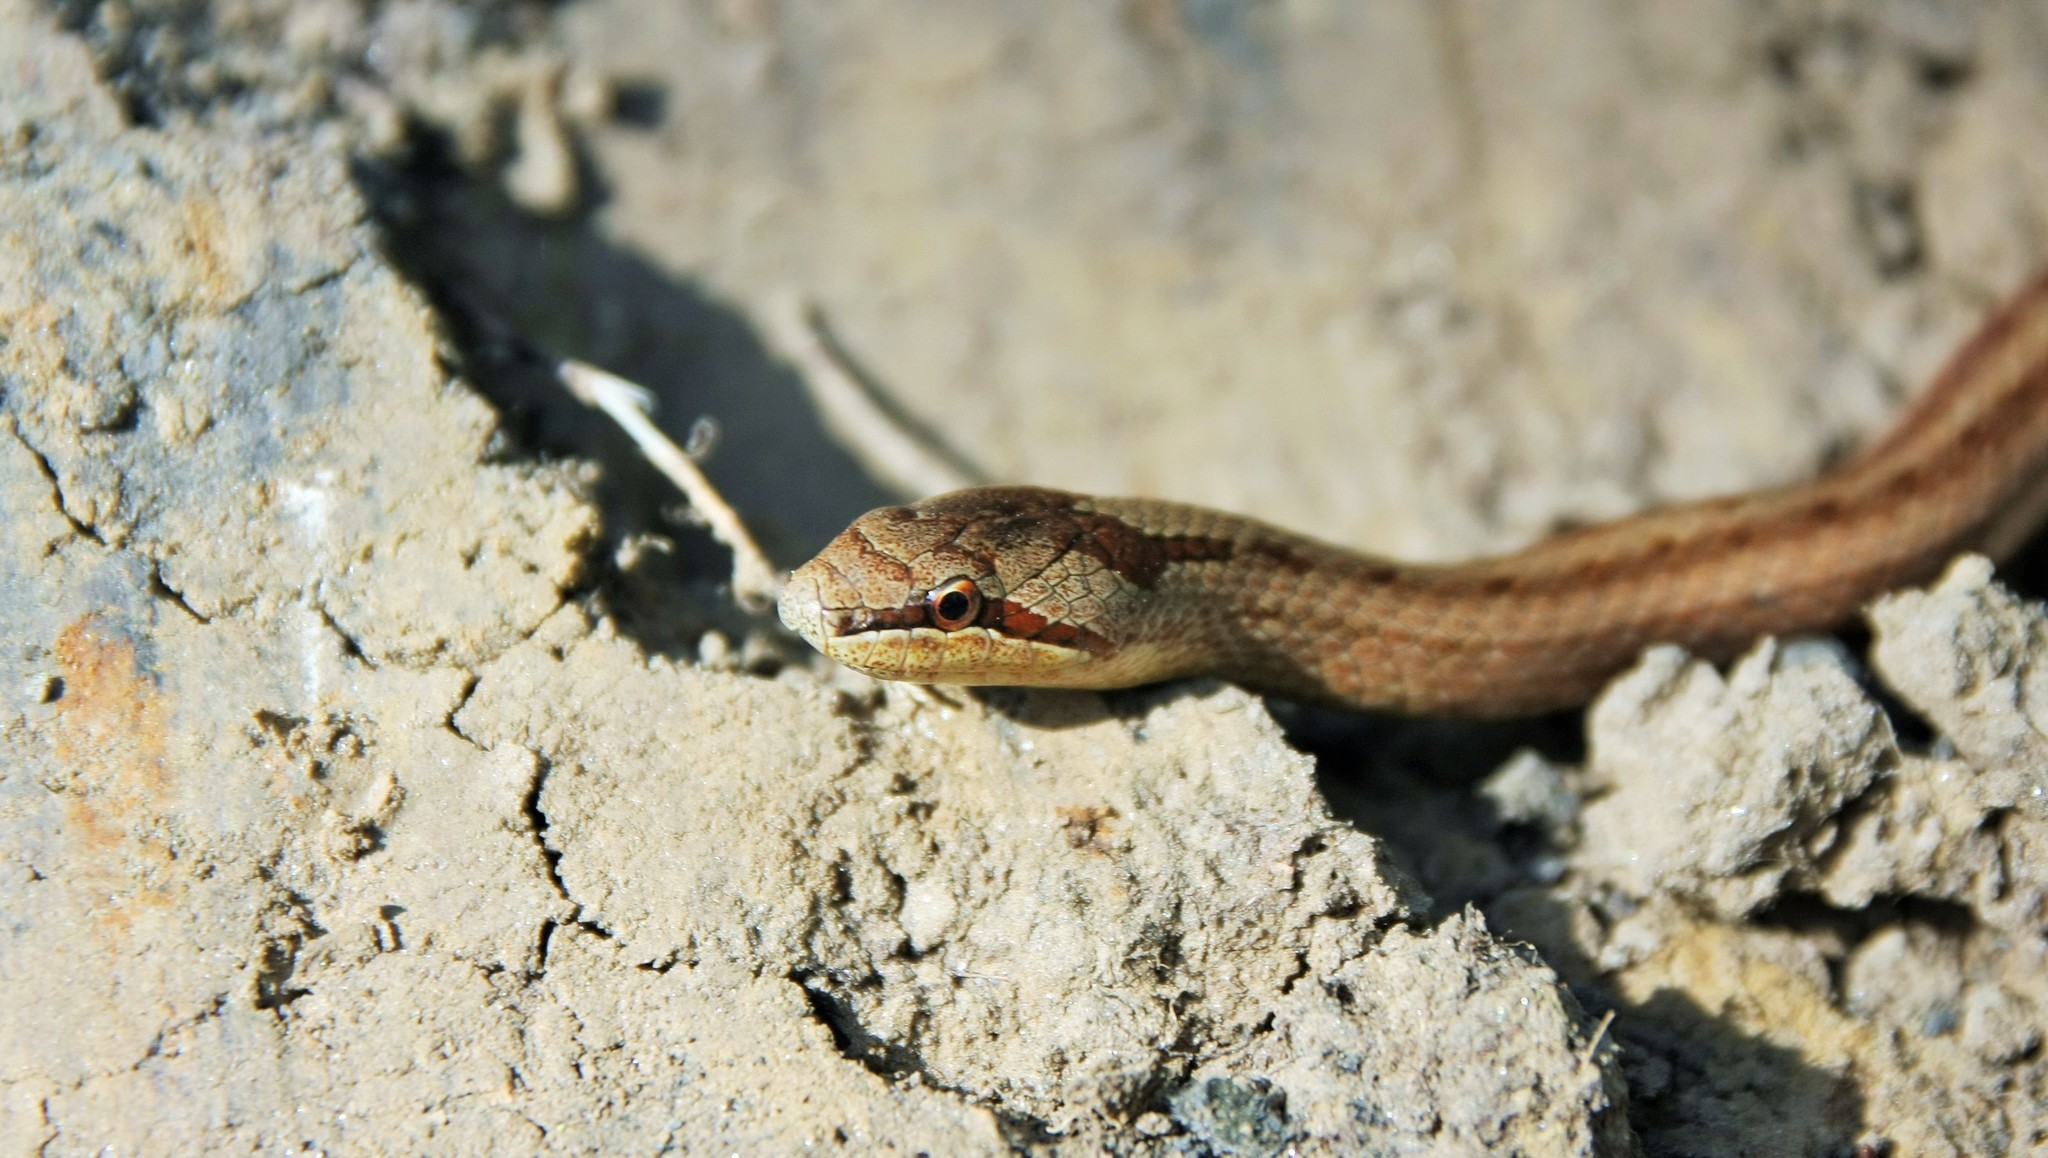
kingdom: Animalia
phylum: Chordata
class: Squamata
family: Colubridae
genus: Coronella
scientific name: Coronella austriaca
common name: Smooth snake
